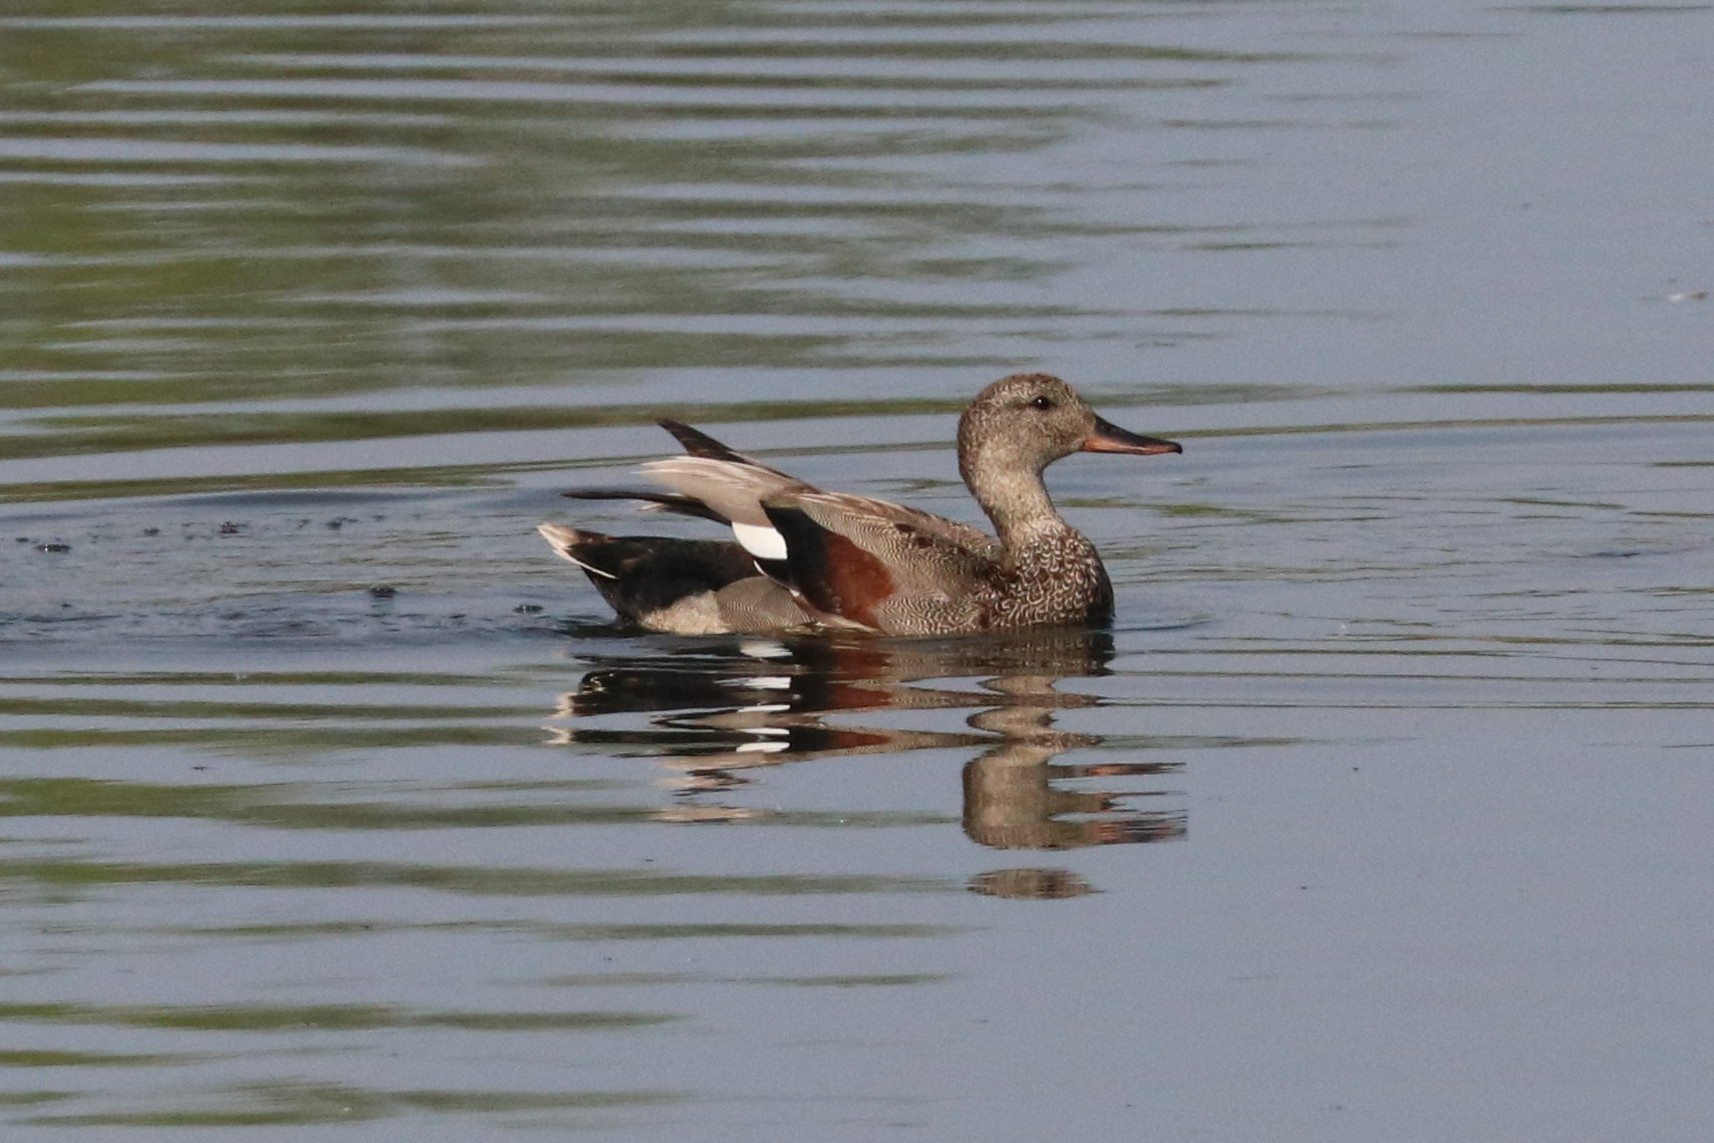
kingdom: Animalia
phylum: Chordata
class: Aves
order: Anseriformes
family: Anatidae
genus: Mareca
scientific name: Mareca strepera
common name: Gadwall
